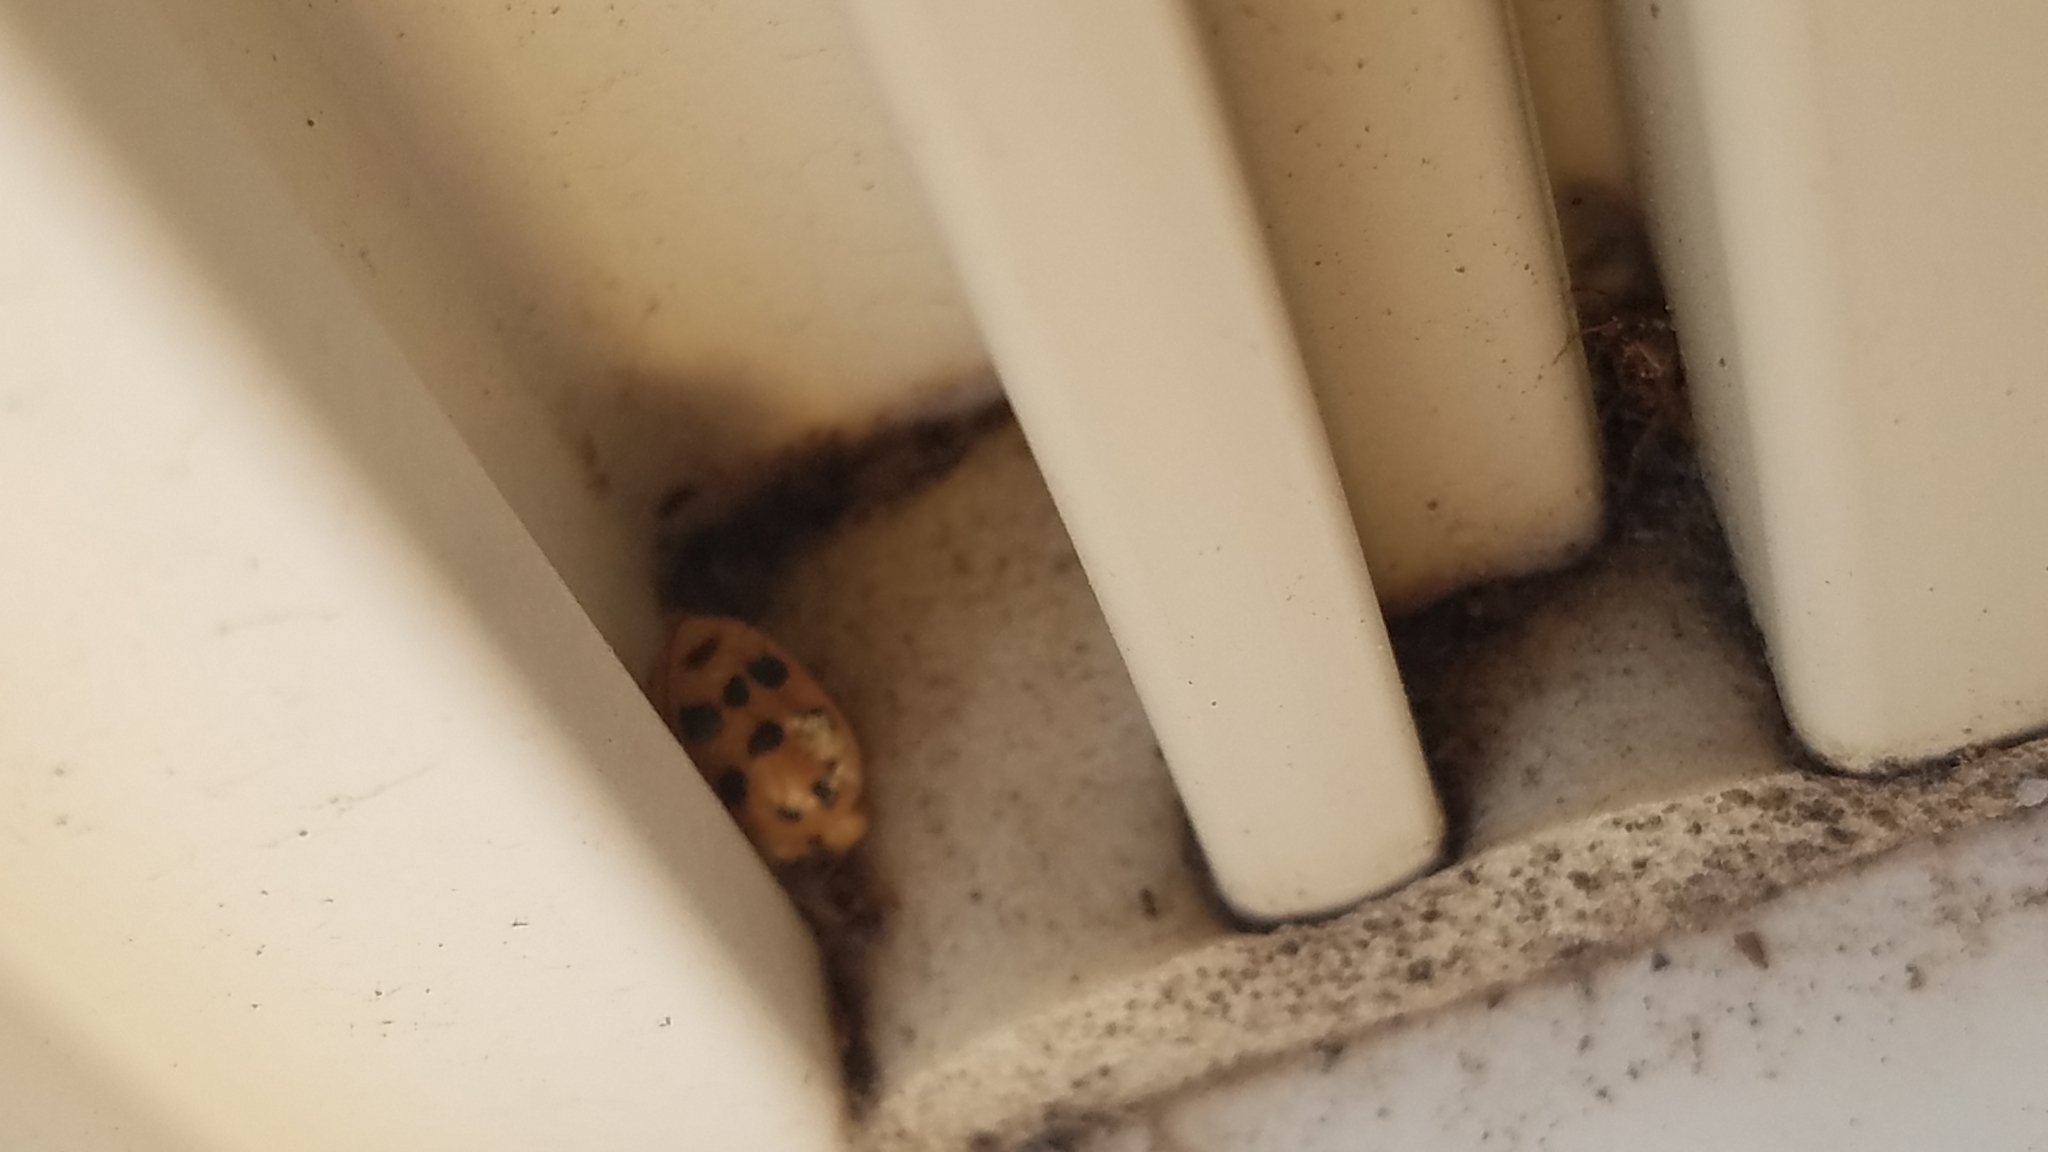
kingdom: Animalia
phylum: Arthropoda
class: Insecta
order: Coleoptera
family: Coccinellidae
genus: Harmonia
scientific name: Harmonia axyridis
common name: Harlequin ladybird
